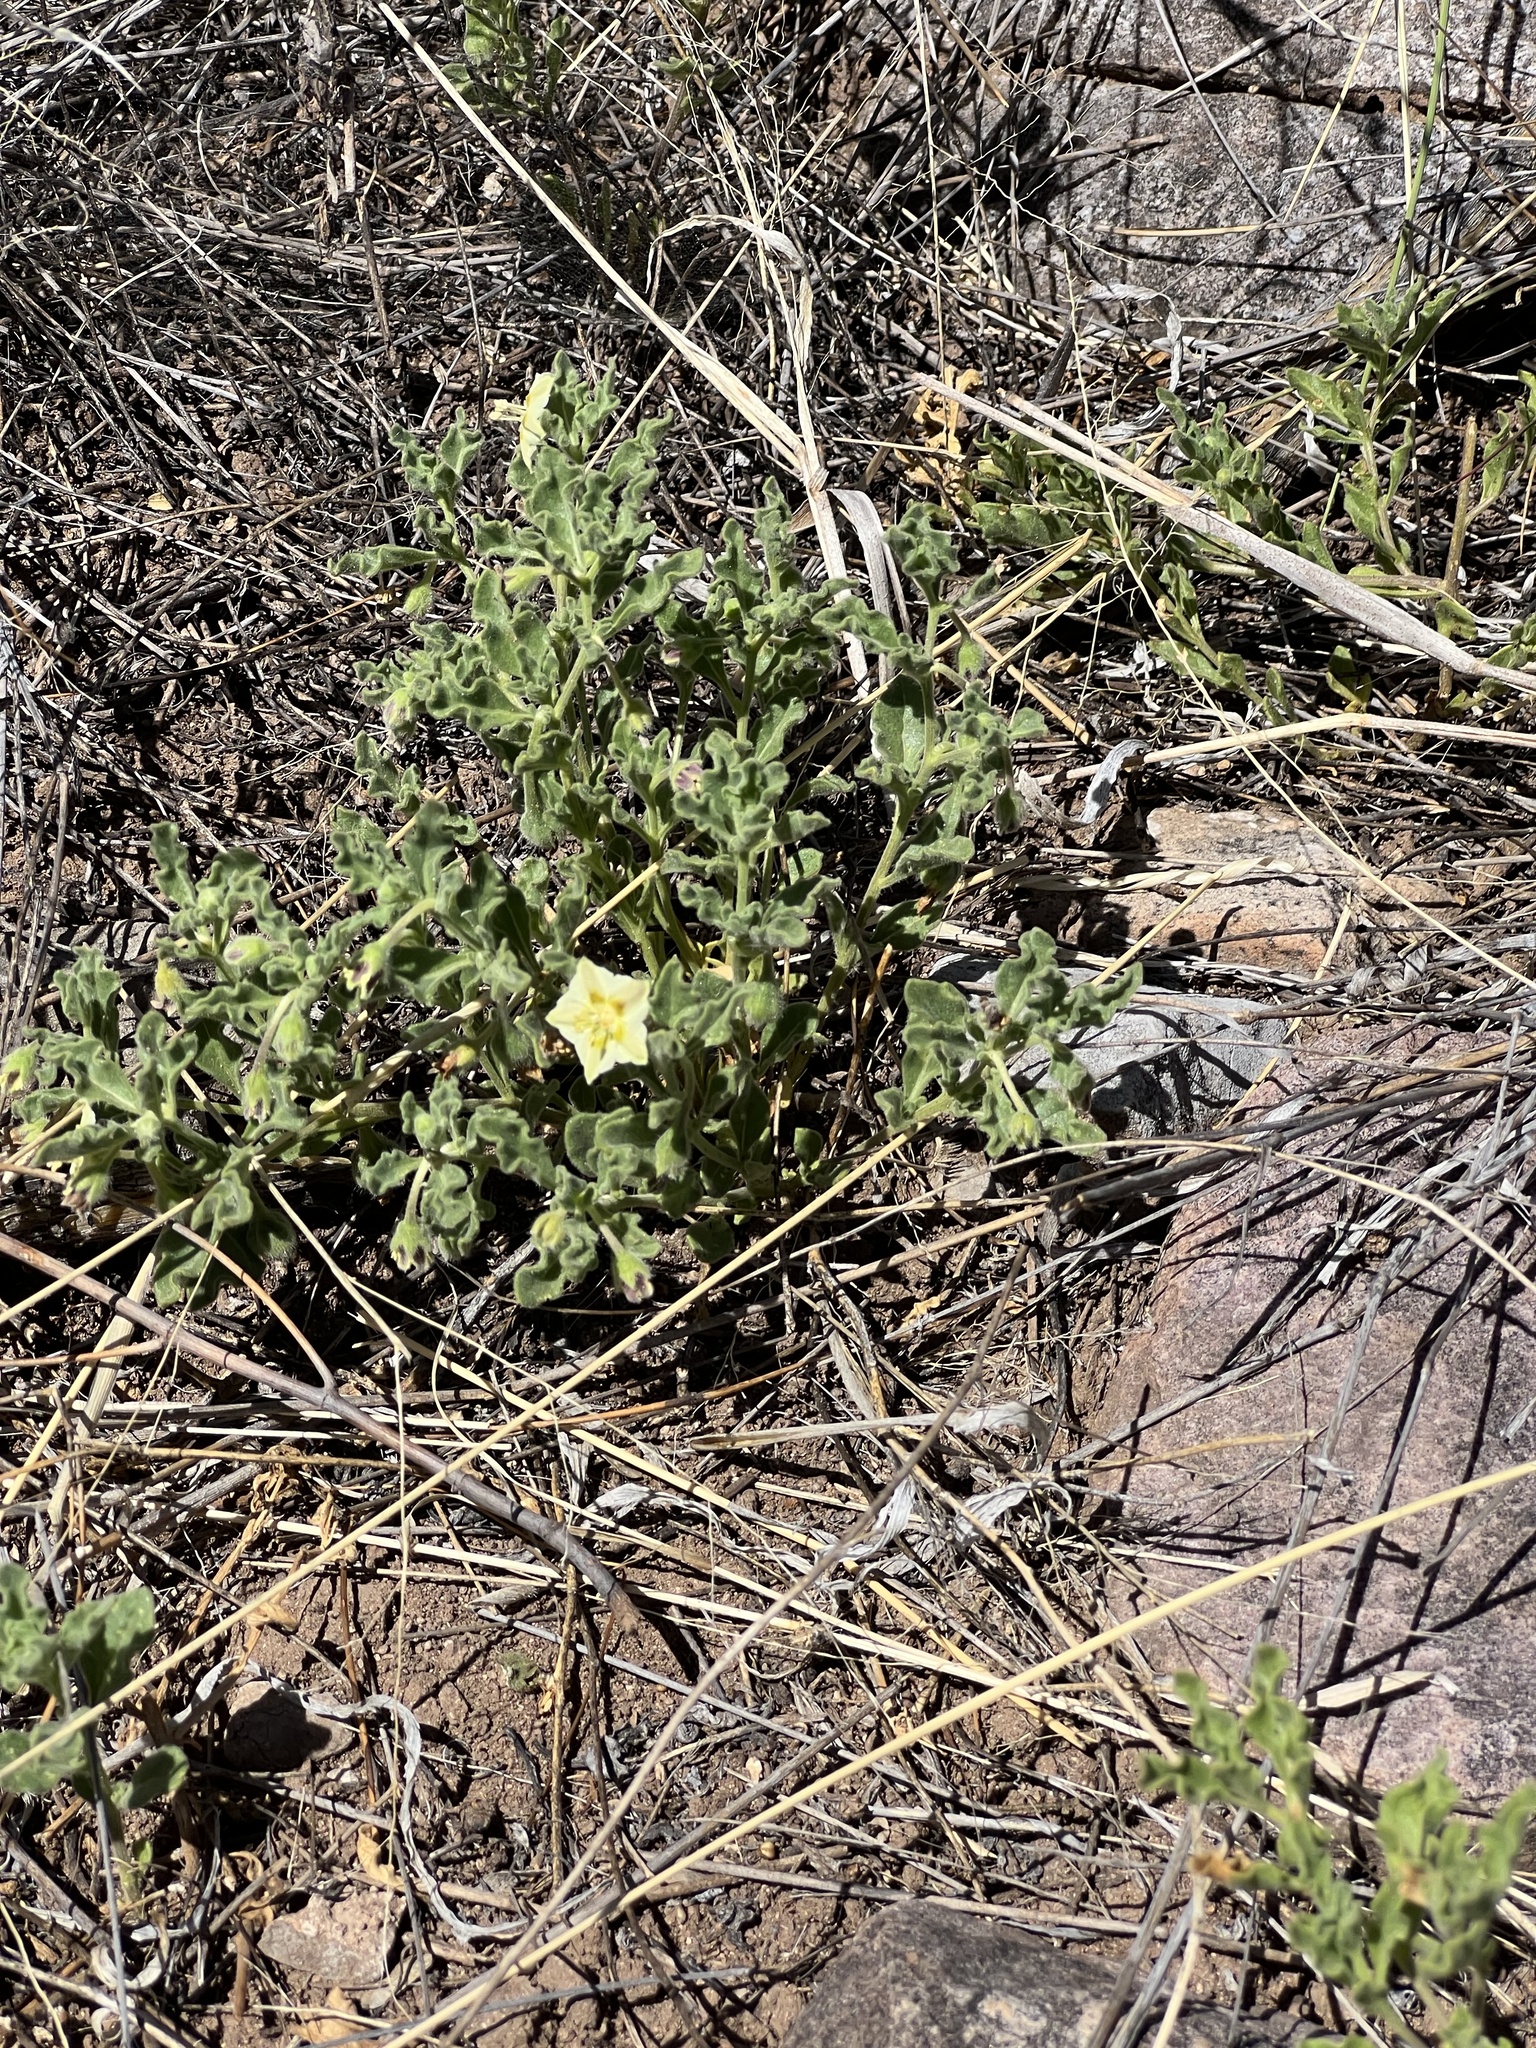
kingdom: Plantae
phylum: Tracheophyta
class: Magnoliopsida
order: Solanales
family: Solanaceae
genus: Chamaesaracha
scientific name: Chamaesaracha sordida
